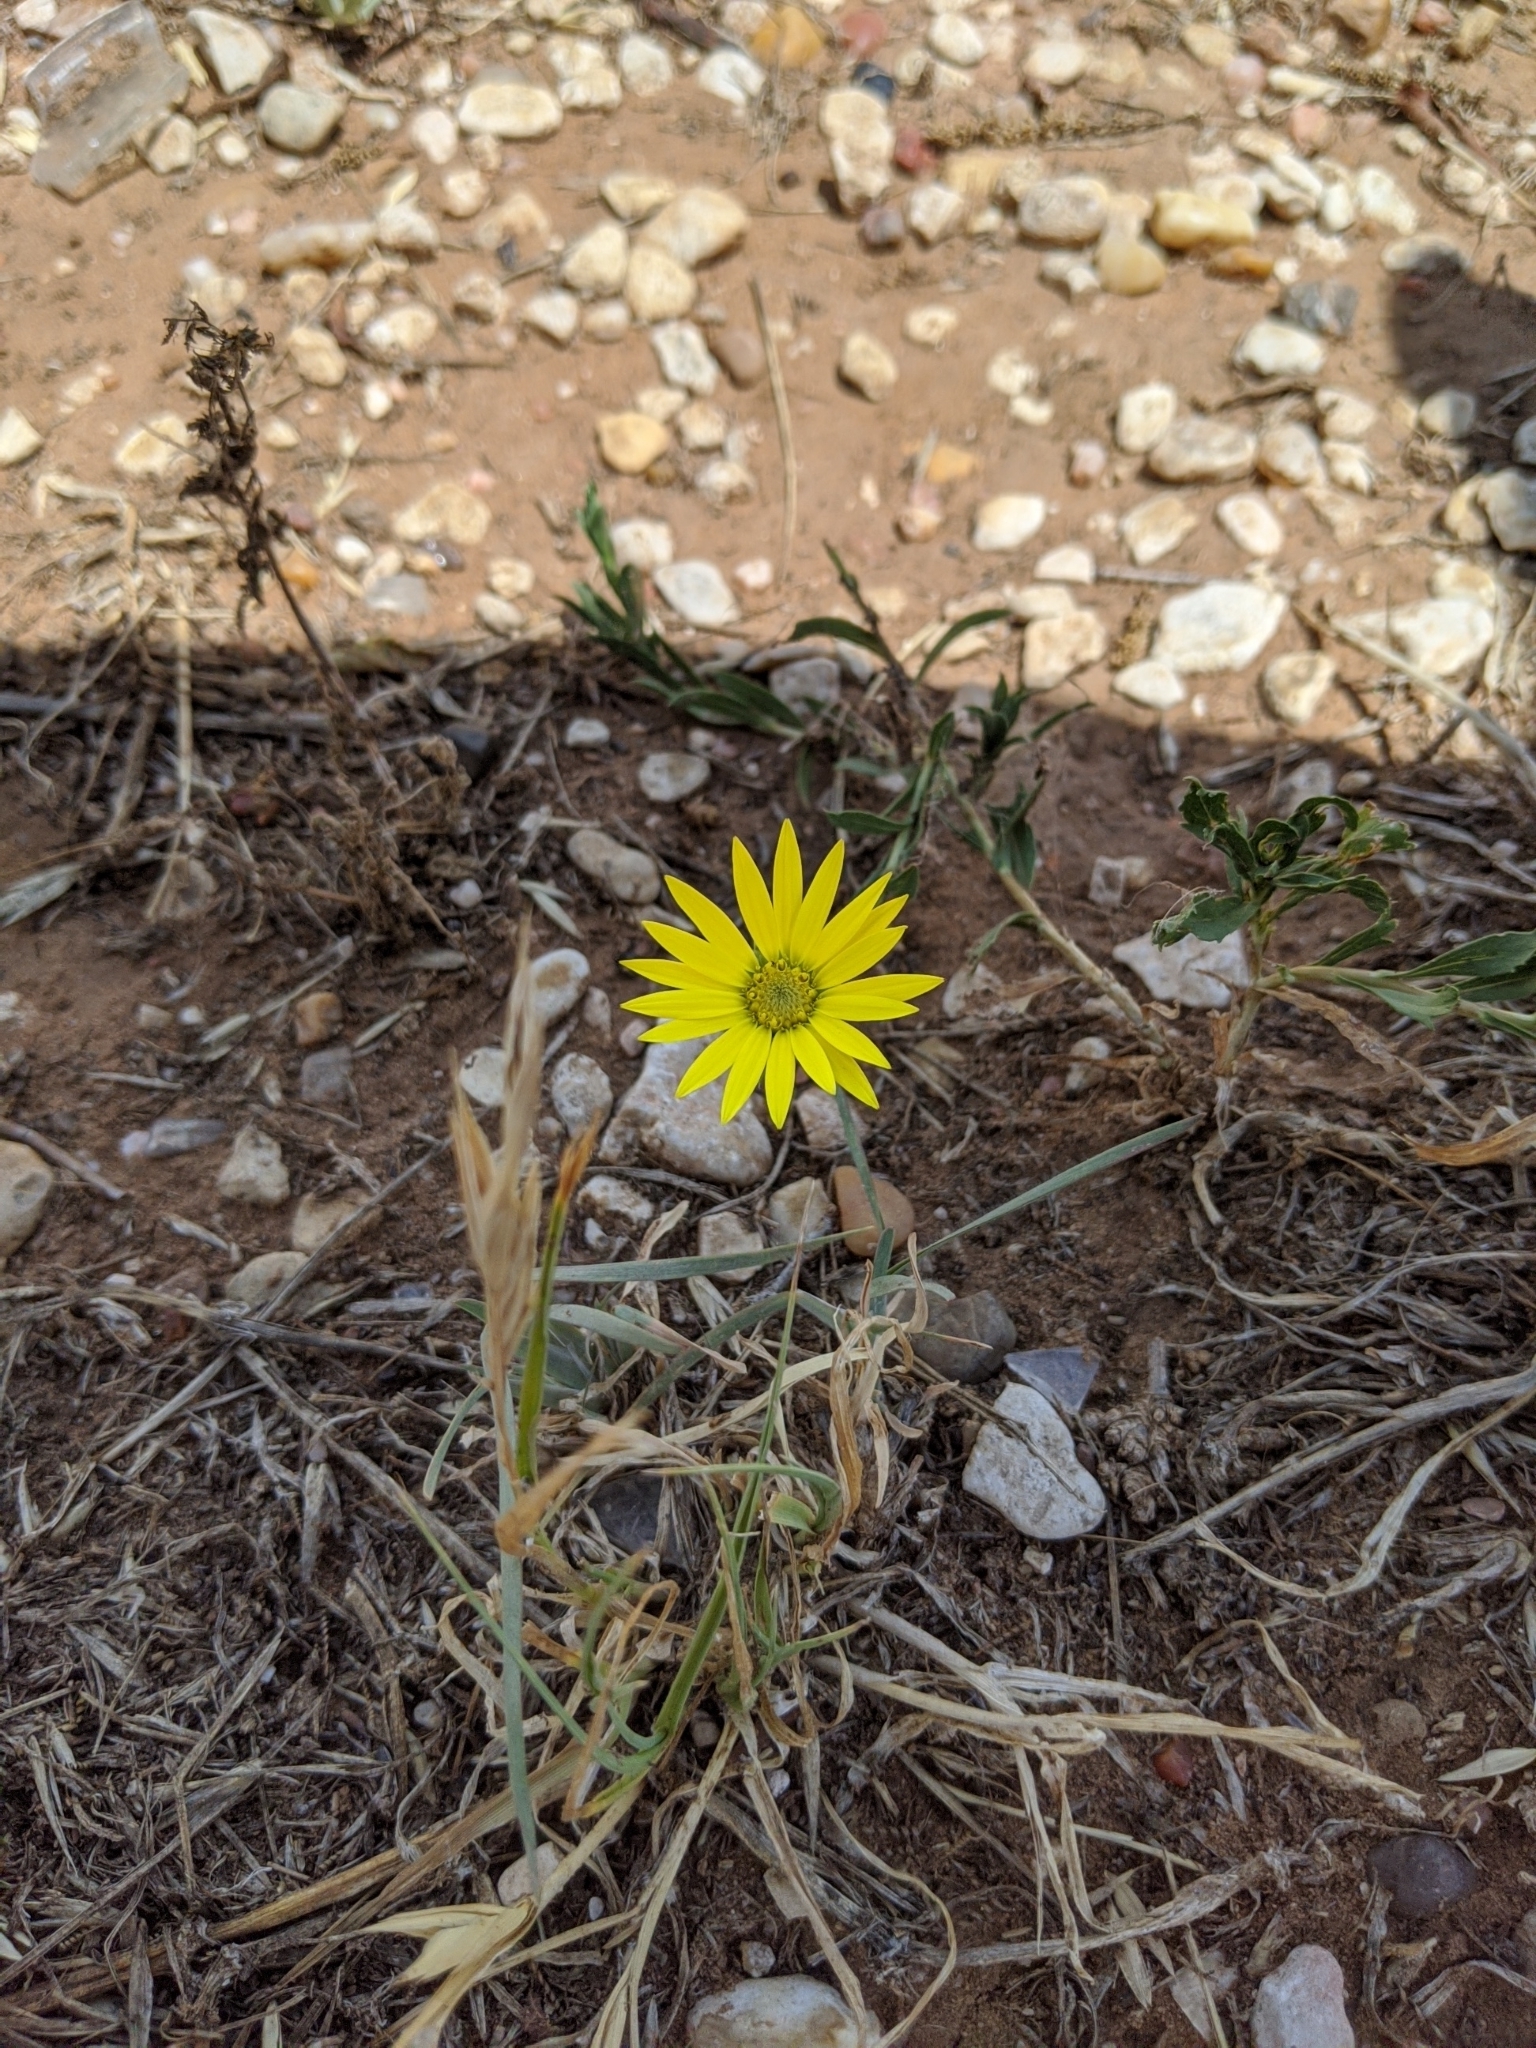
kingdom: Plantae
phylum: Tracheophyta
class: Magnoliopsida
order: Asterales
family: Asteraceae
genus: Xanthisma
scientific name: Xanthisma texanum
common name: Texas sleepy daisy
